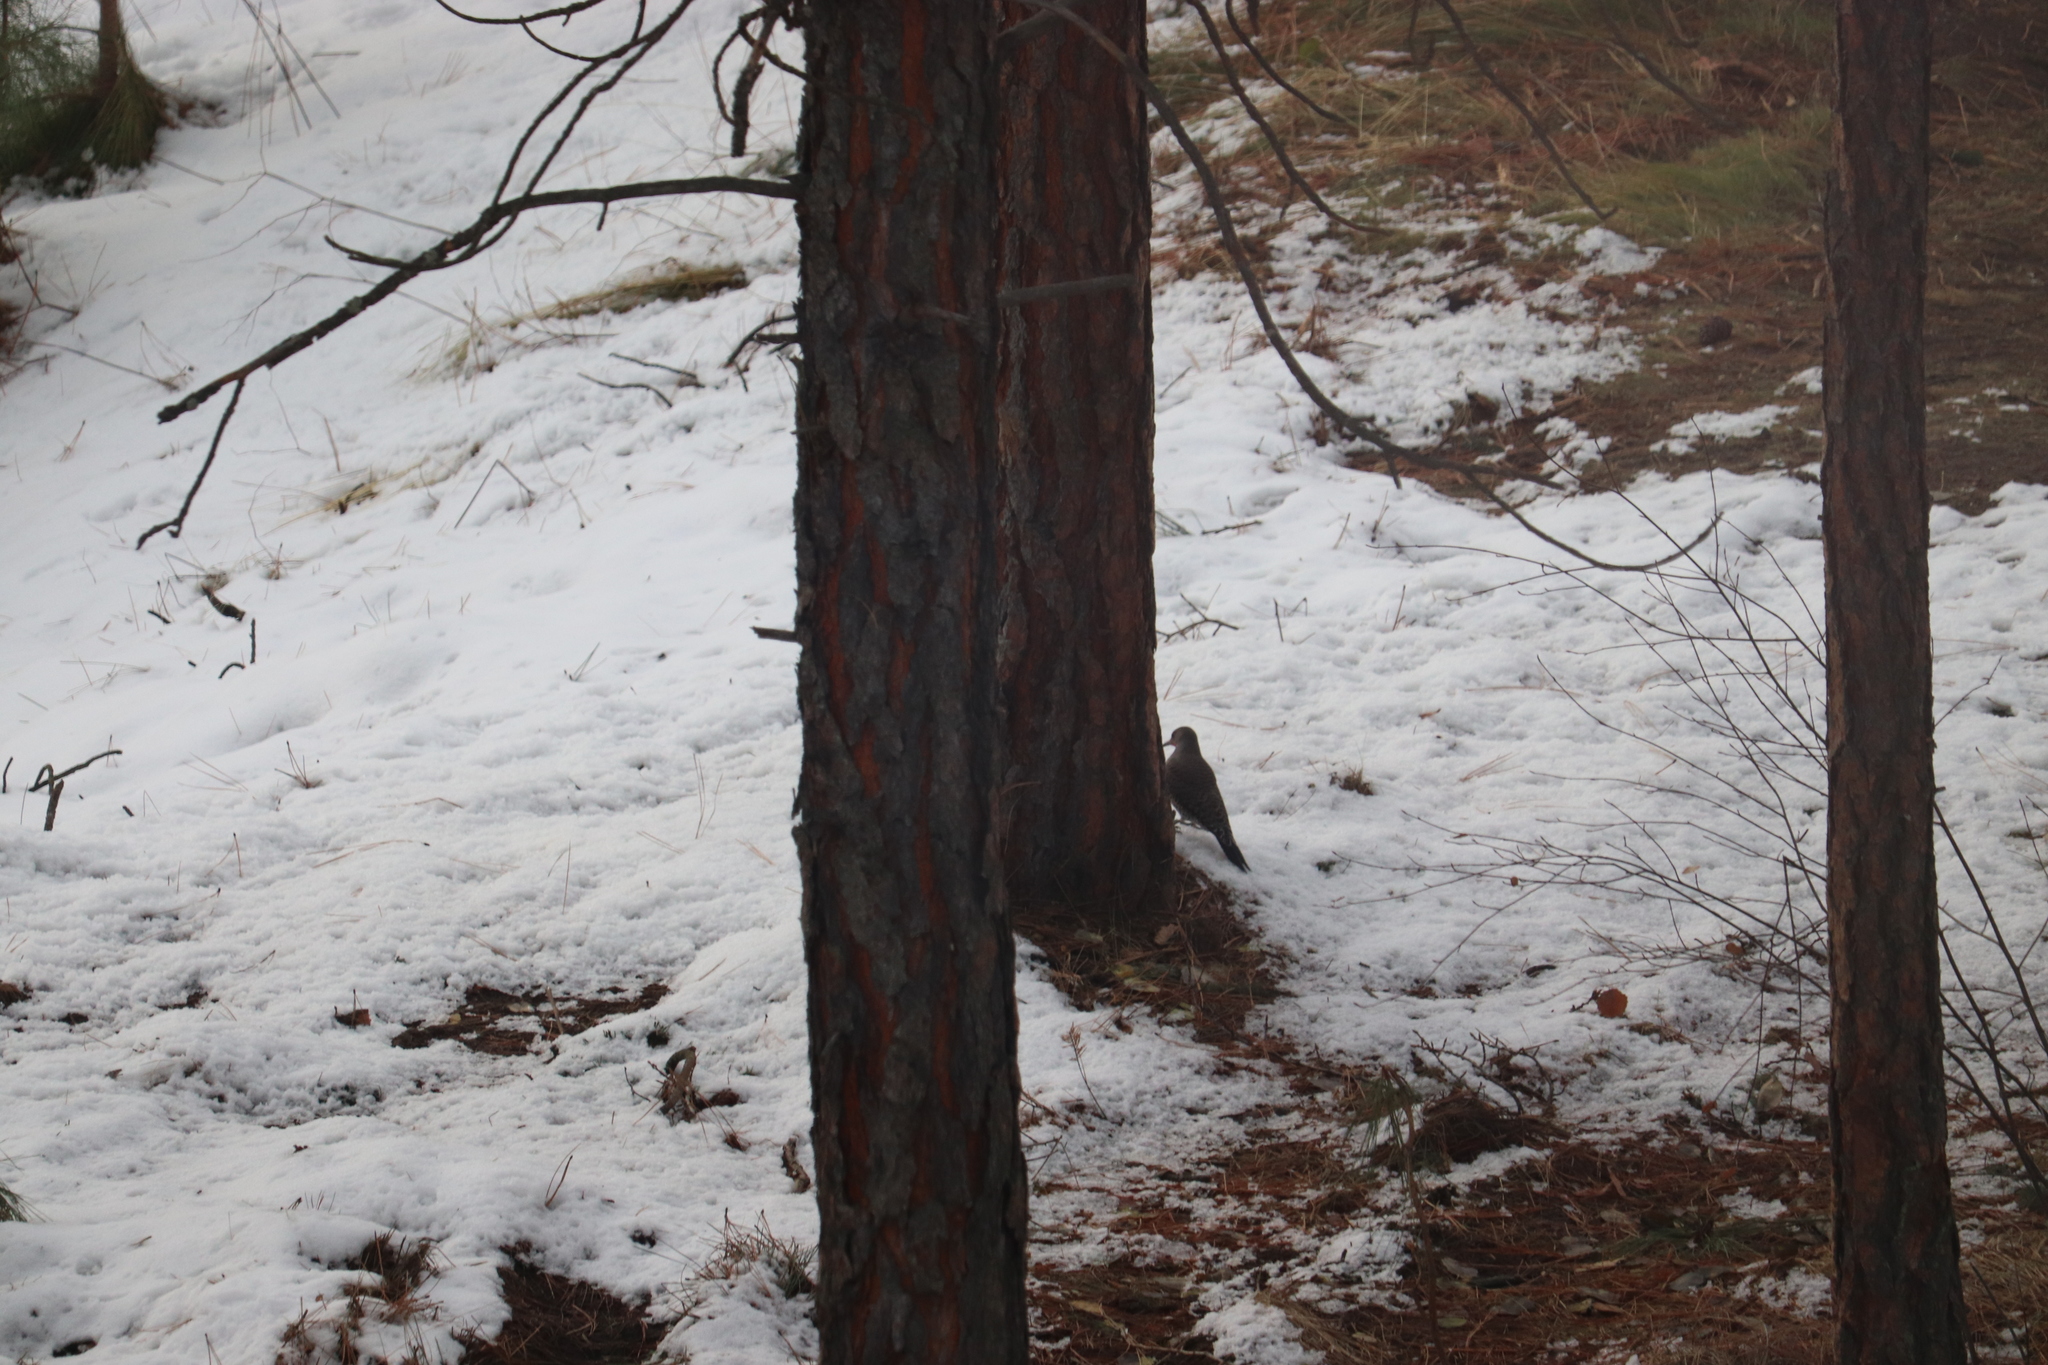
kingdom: Animalia
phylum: Chordata
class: Aves
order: Piciformes
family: Picidae
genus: Colaptes
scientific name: Colaptes auratus
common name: Northern flicker
